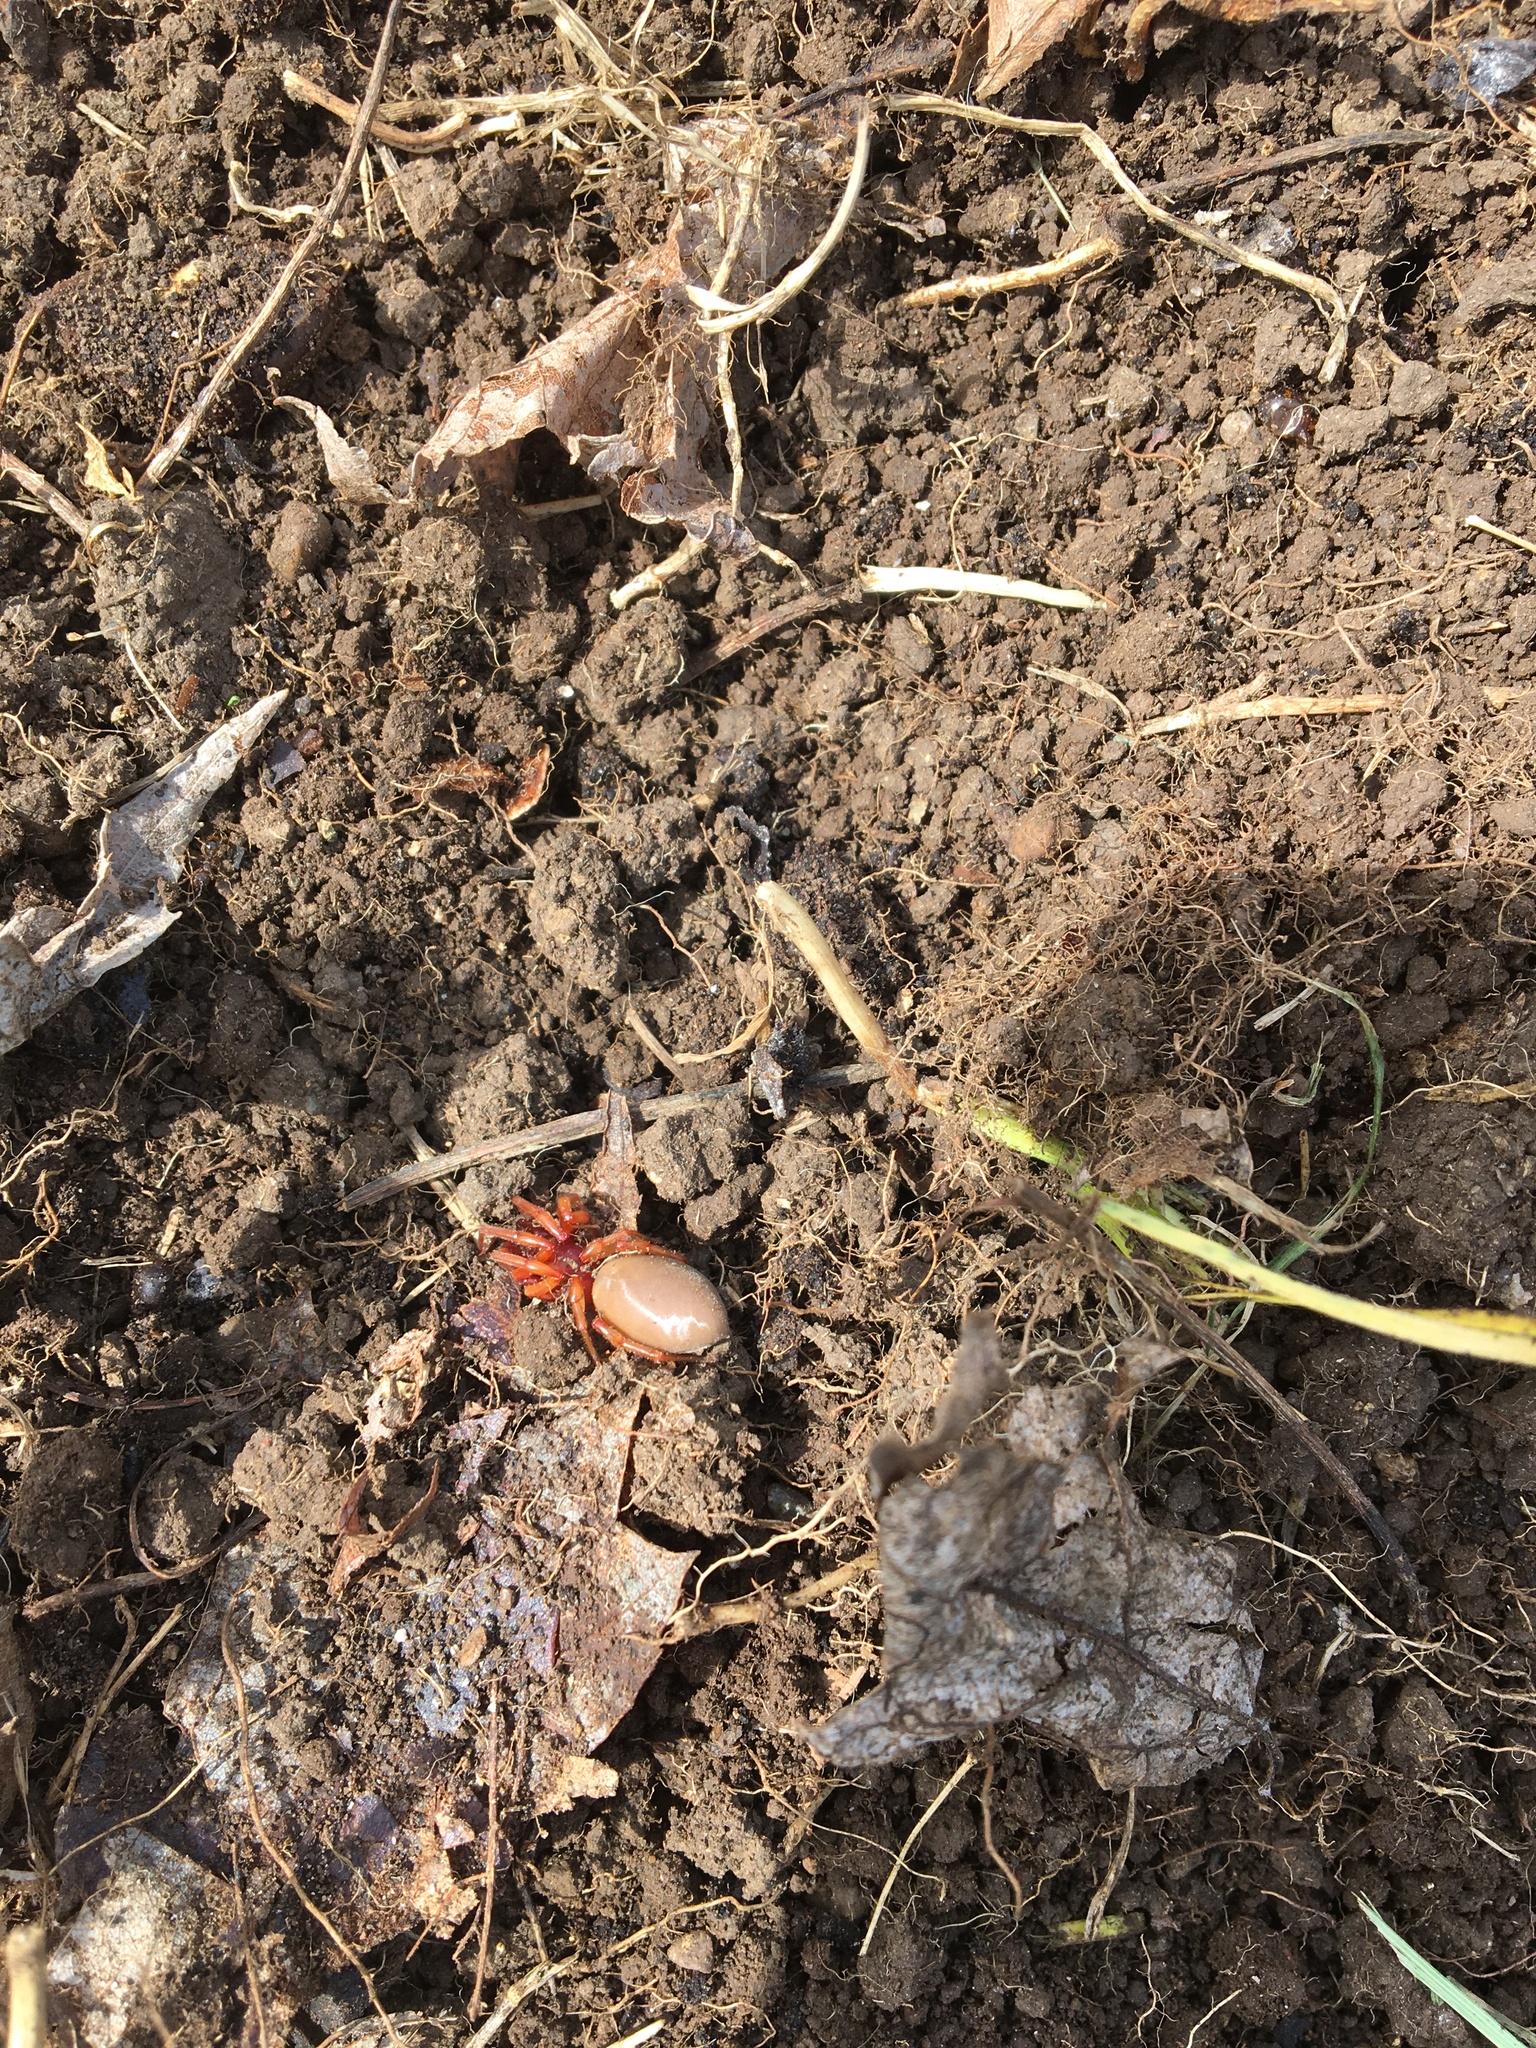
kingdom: Animalia
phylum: Arthropoda
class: Arachnida
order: Araneae
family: Dysderidae
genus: Dysdera
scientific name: Dysdera crocata
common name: Woodlouse spider
